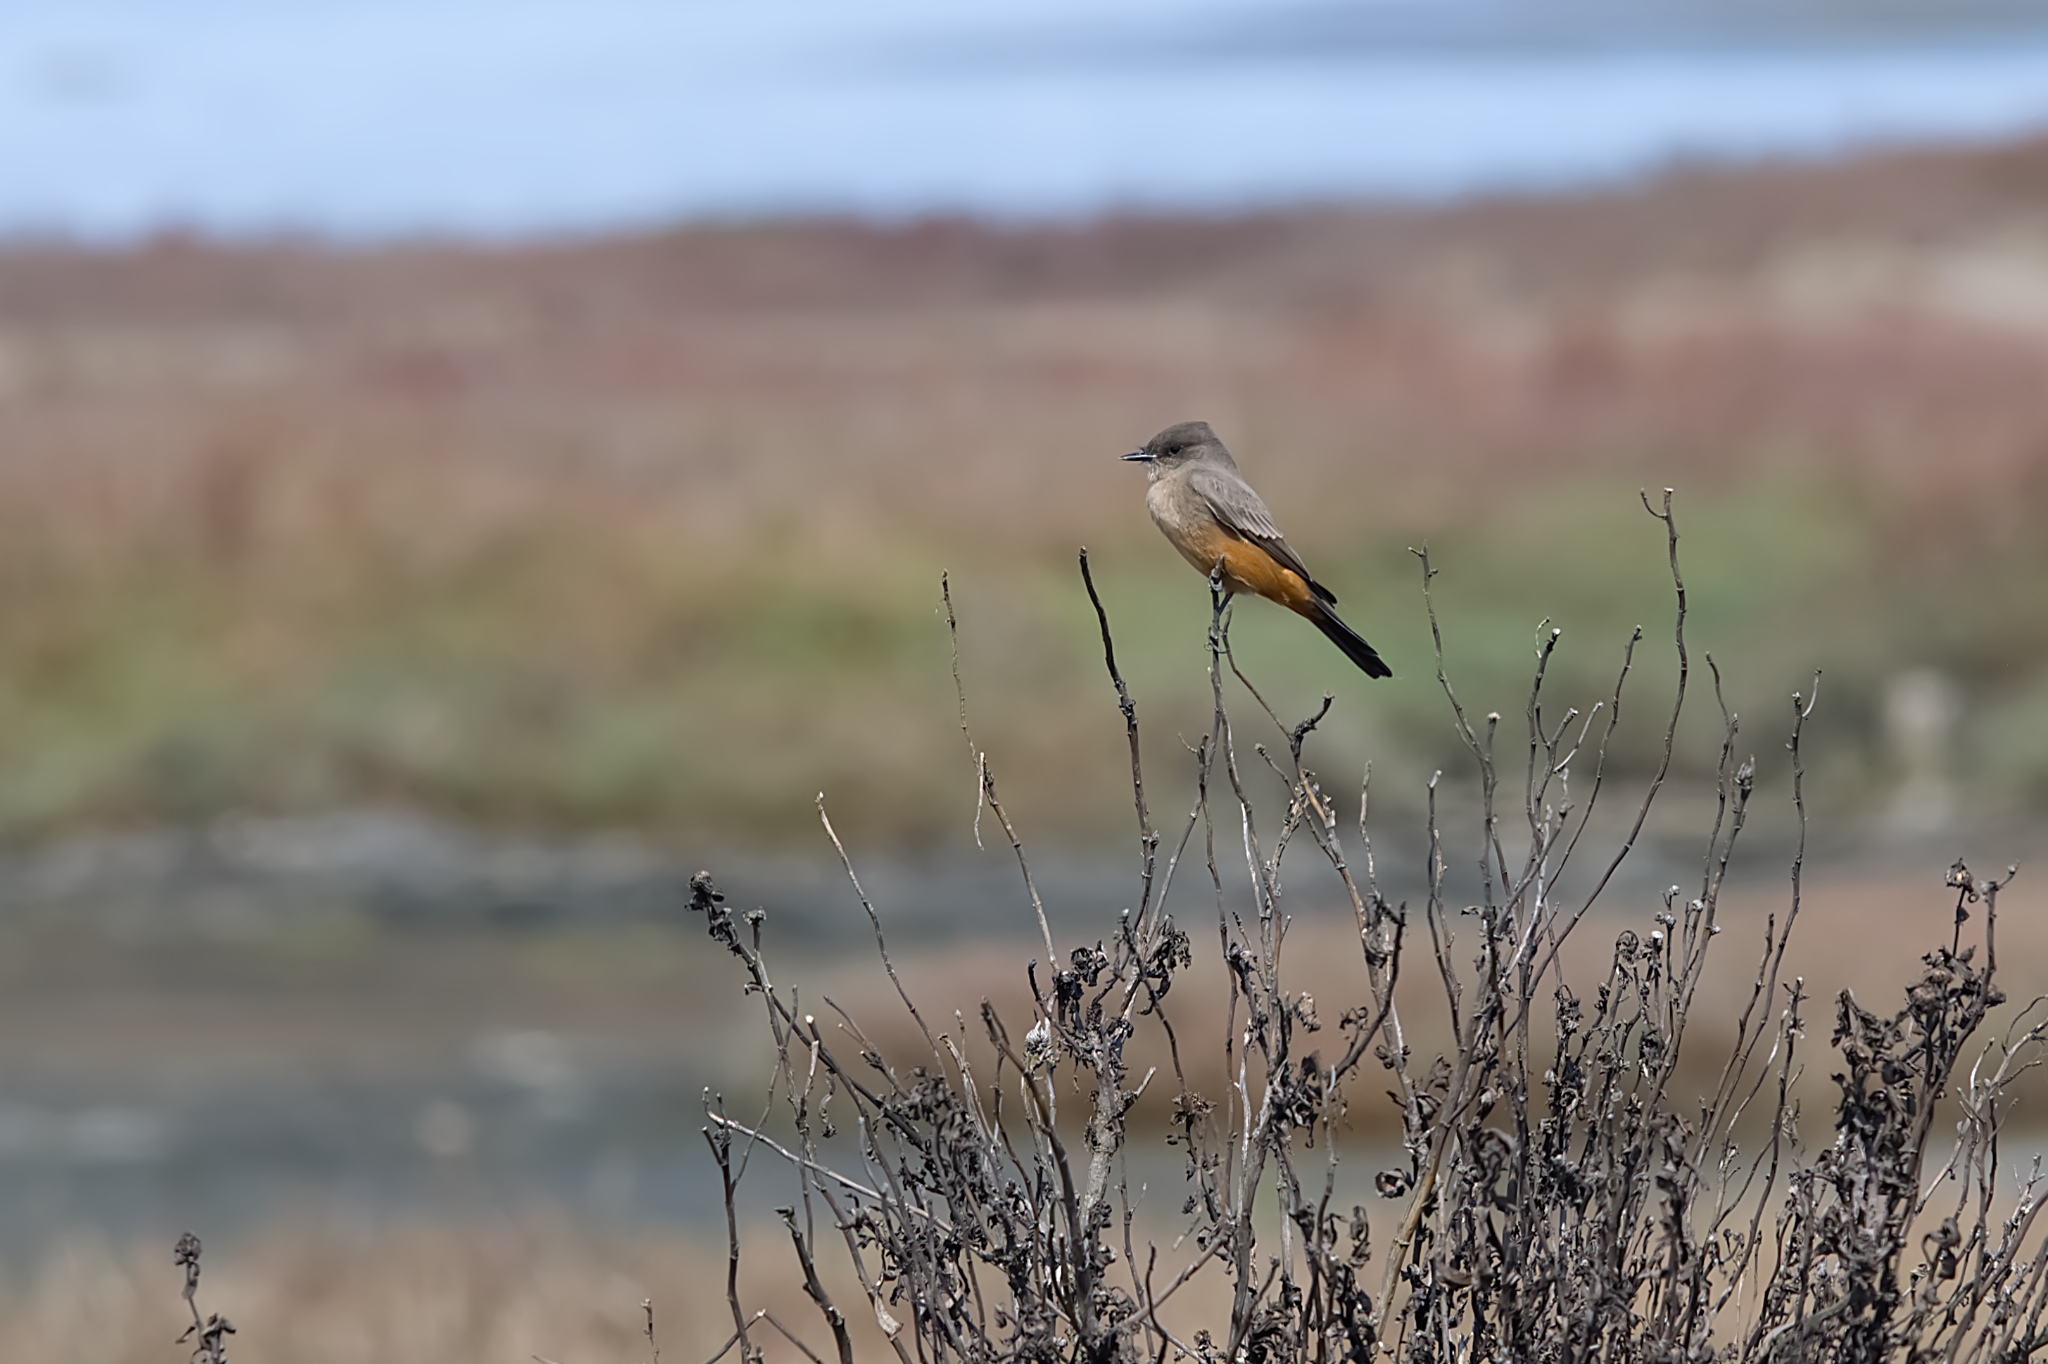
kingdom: Animalia
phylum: Chordata
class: Aves
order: Passeriformes
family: Tyrannidae
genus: Sayornis
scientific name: Sayornis saya
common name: Say's phoebe
